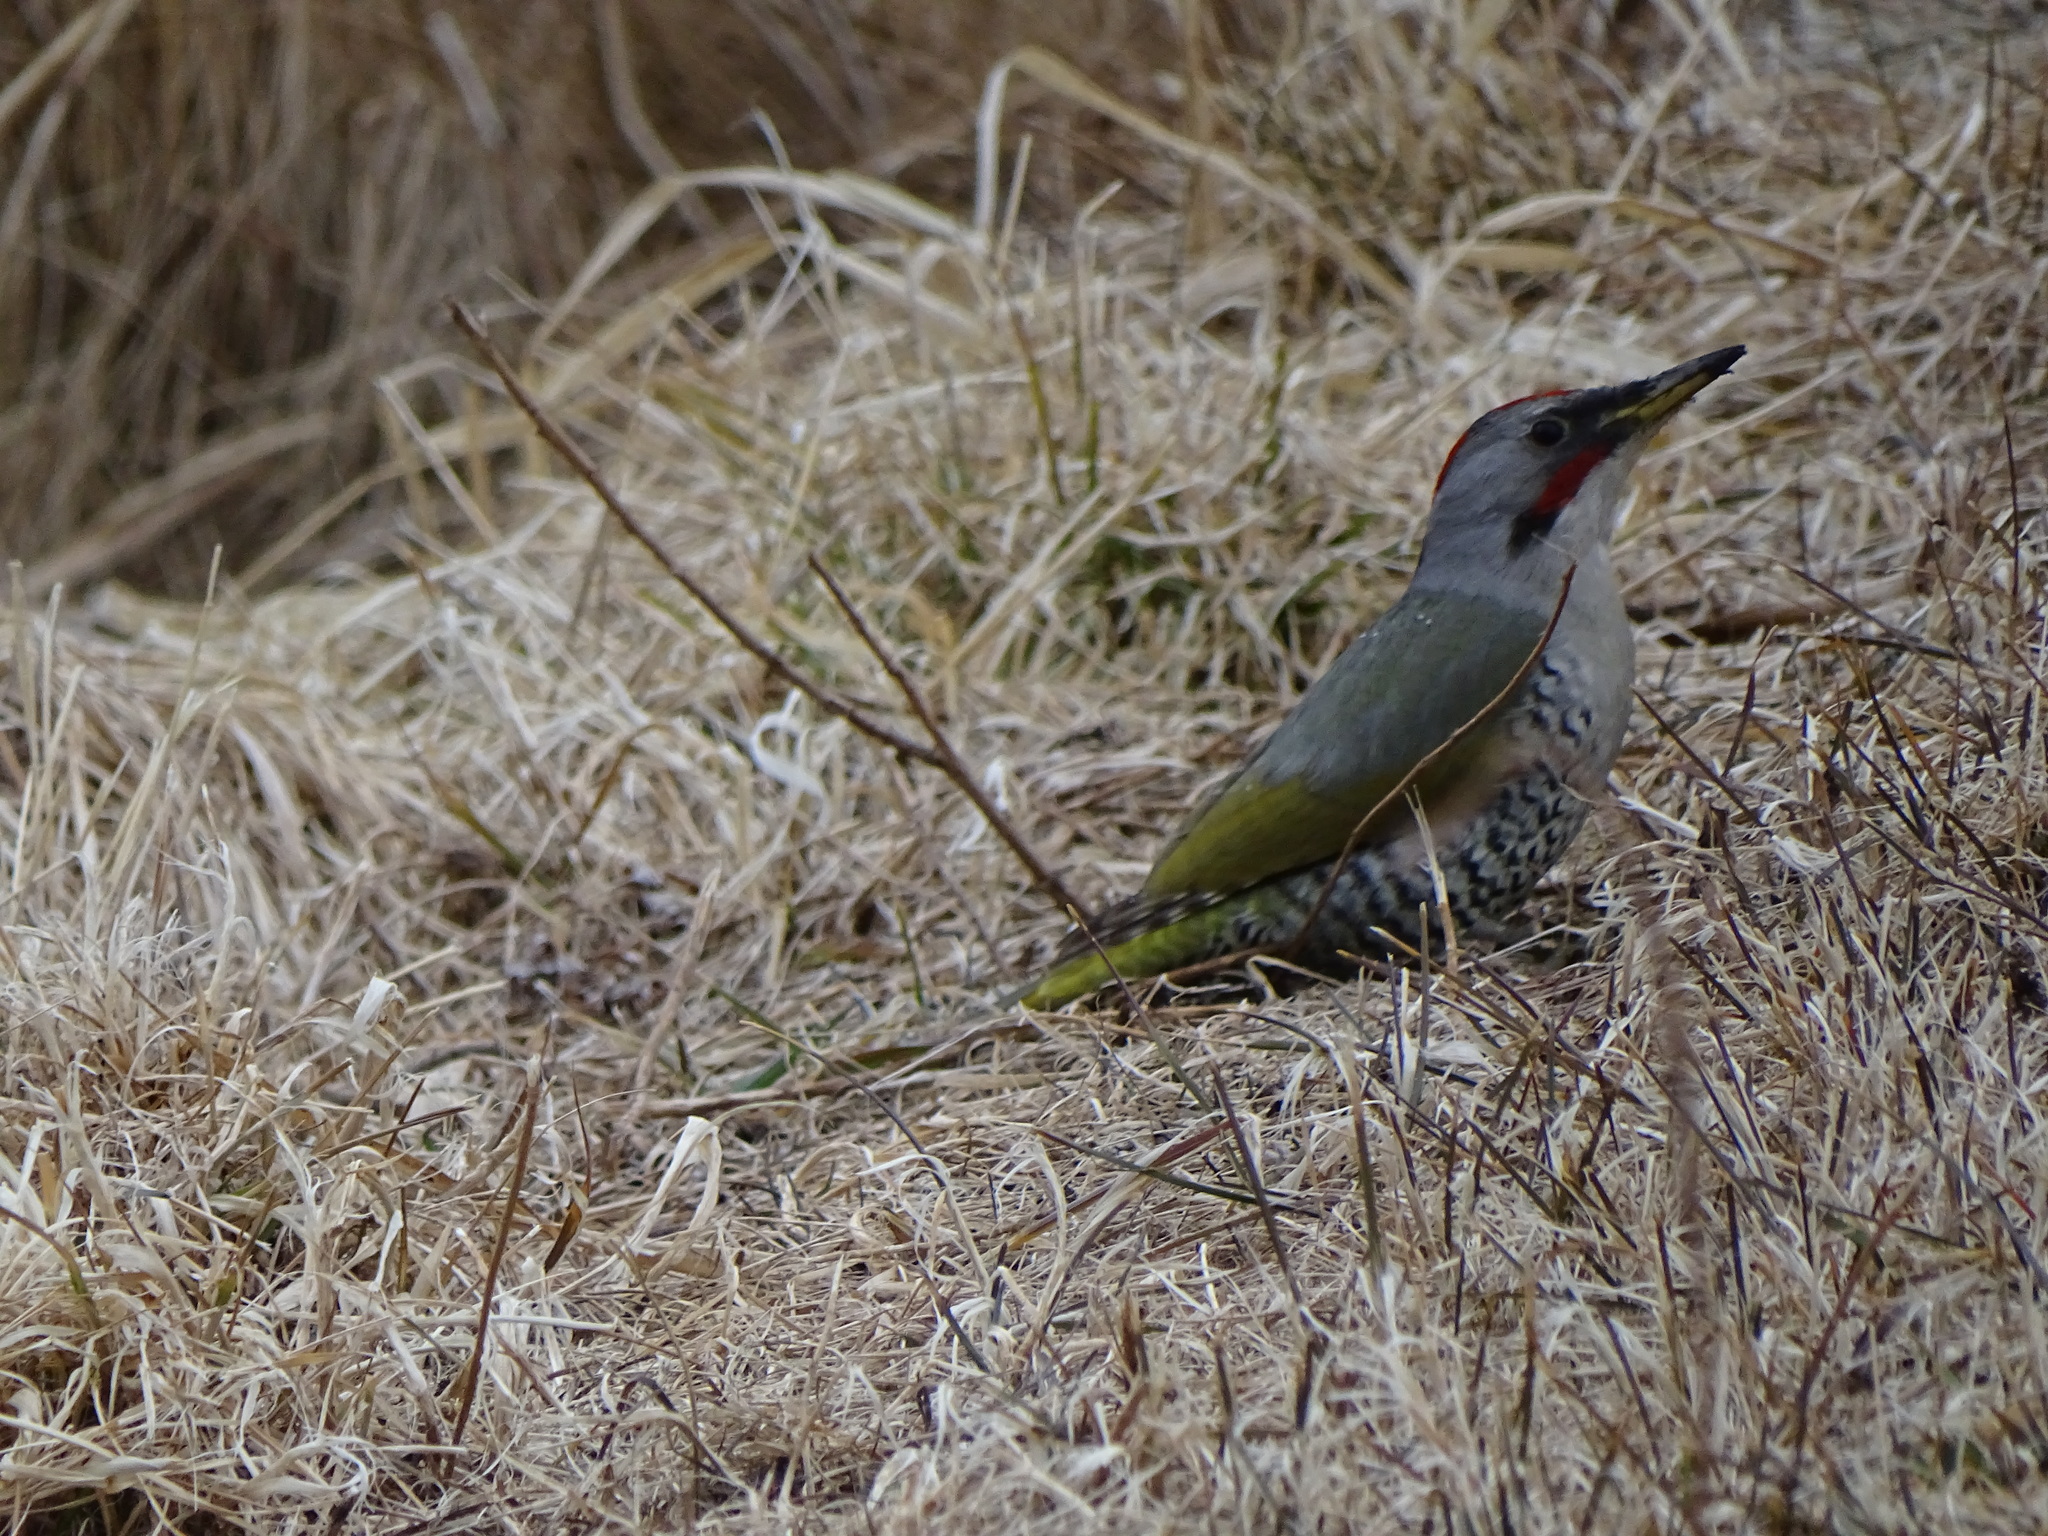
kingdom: Animalia
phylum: Chordata
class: Aves
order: Piciformes
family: Picidae
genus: Picus
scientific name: Picus awokera
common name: Japanese green woodpecker
